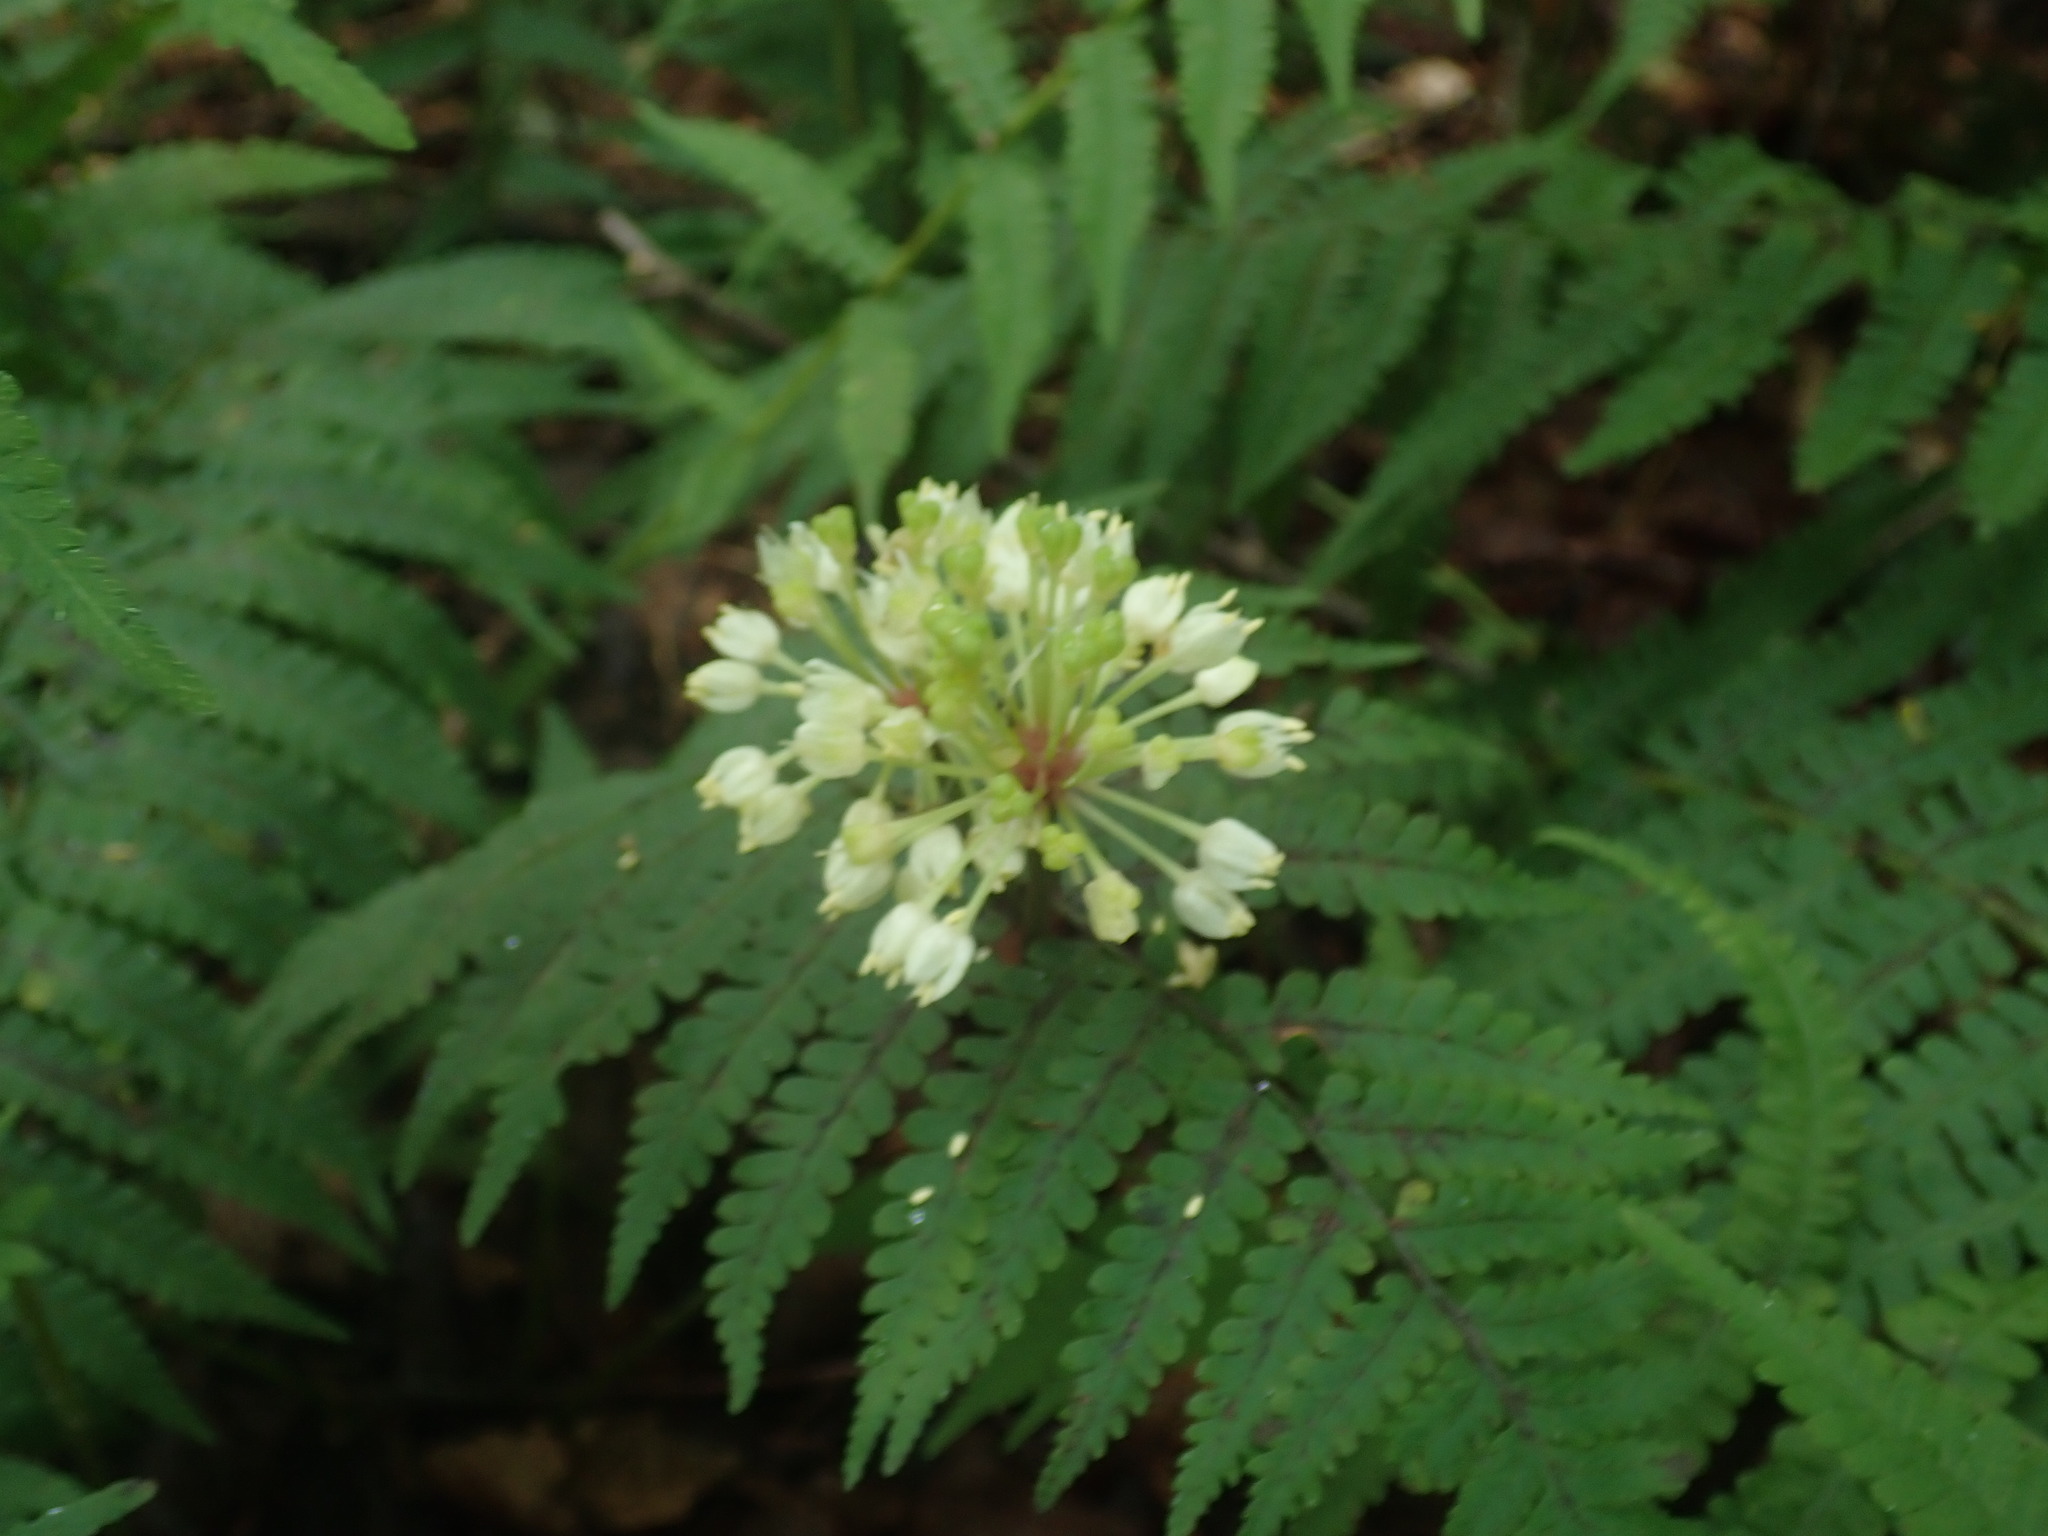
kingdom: Plantae
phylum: Tracheophyta
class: Liliopsida
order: Asparagales
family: Amaryllidaceae
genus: Allium
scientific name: Allium tricoccum
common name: Ramp
